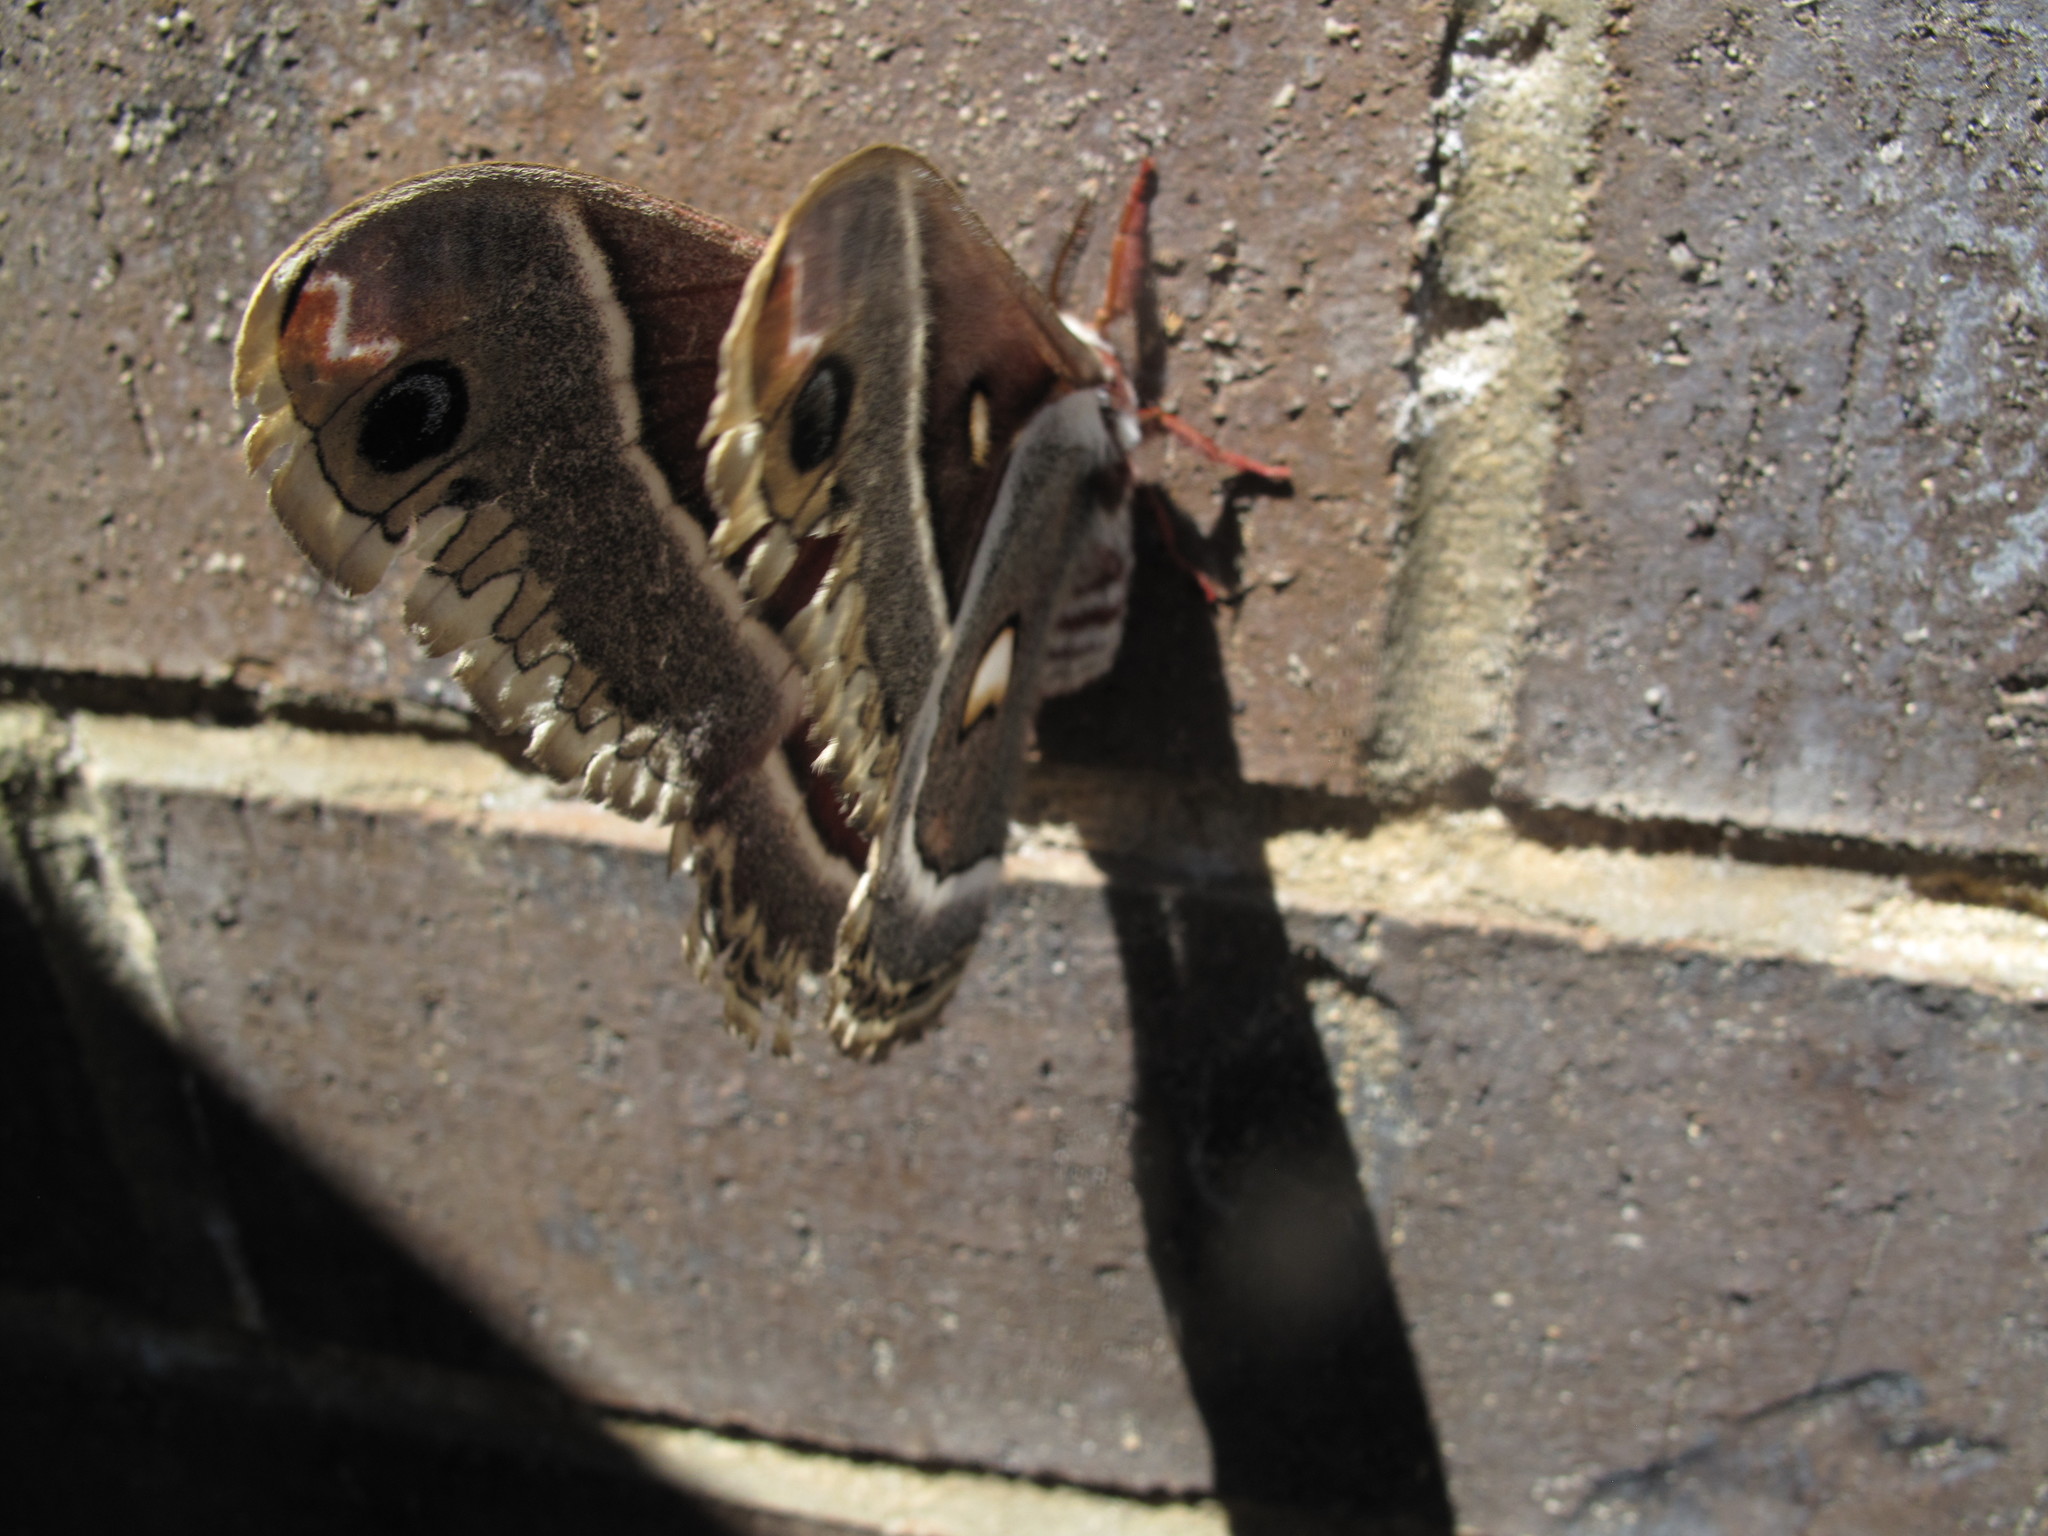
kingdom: Animalia
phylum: Arthropoda
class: Insecta
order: Lepidoptera
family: Saturniidae
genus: Hyalophora
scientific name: Hyalophora gloveri
